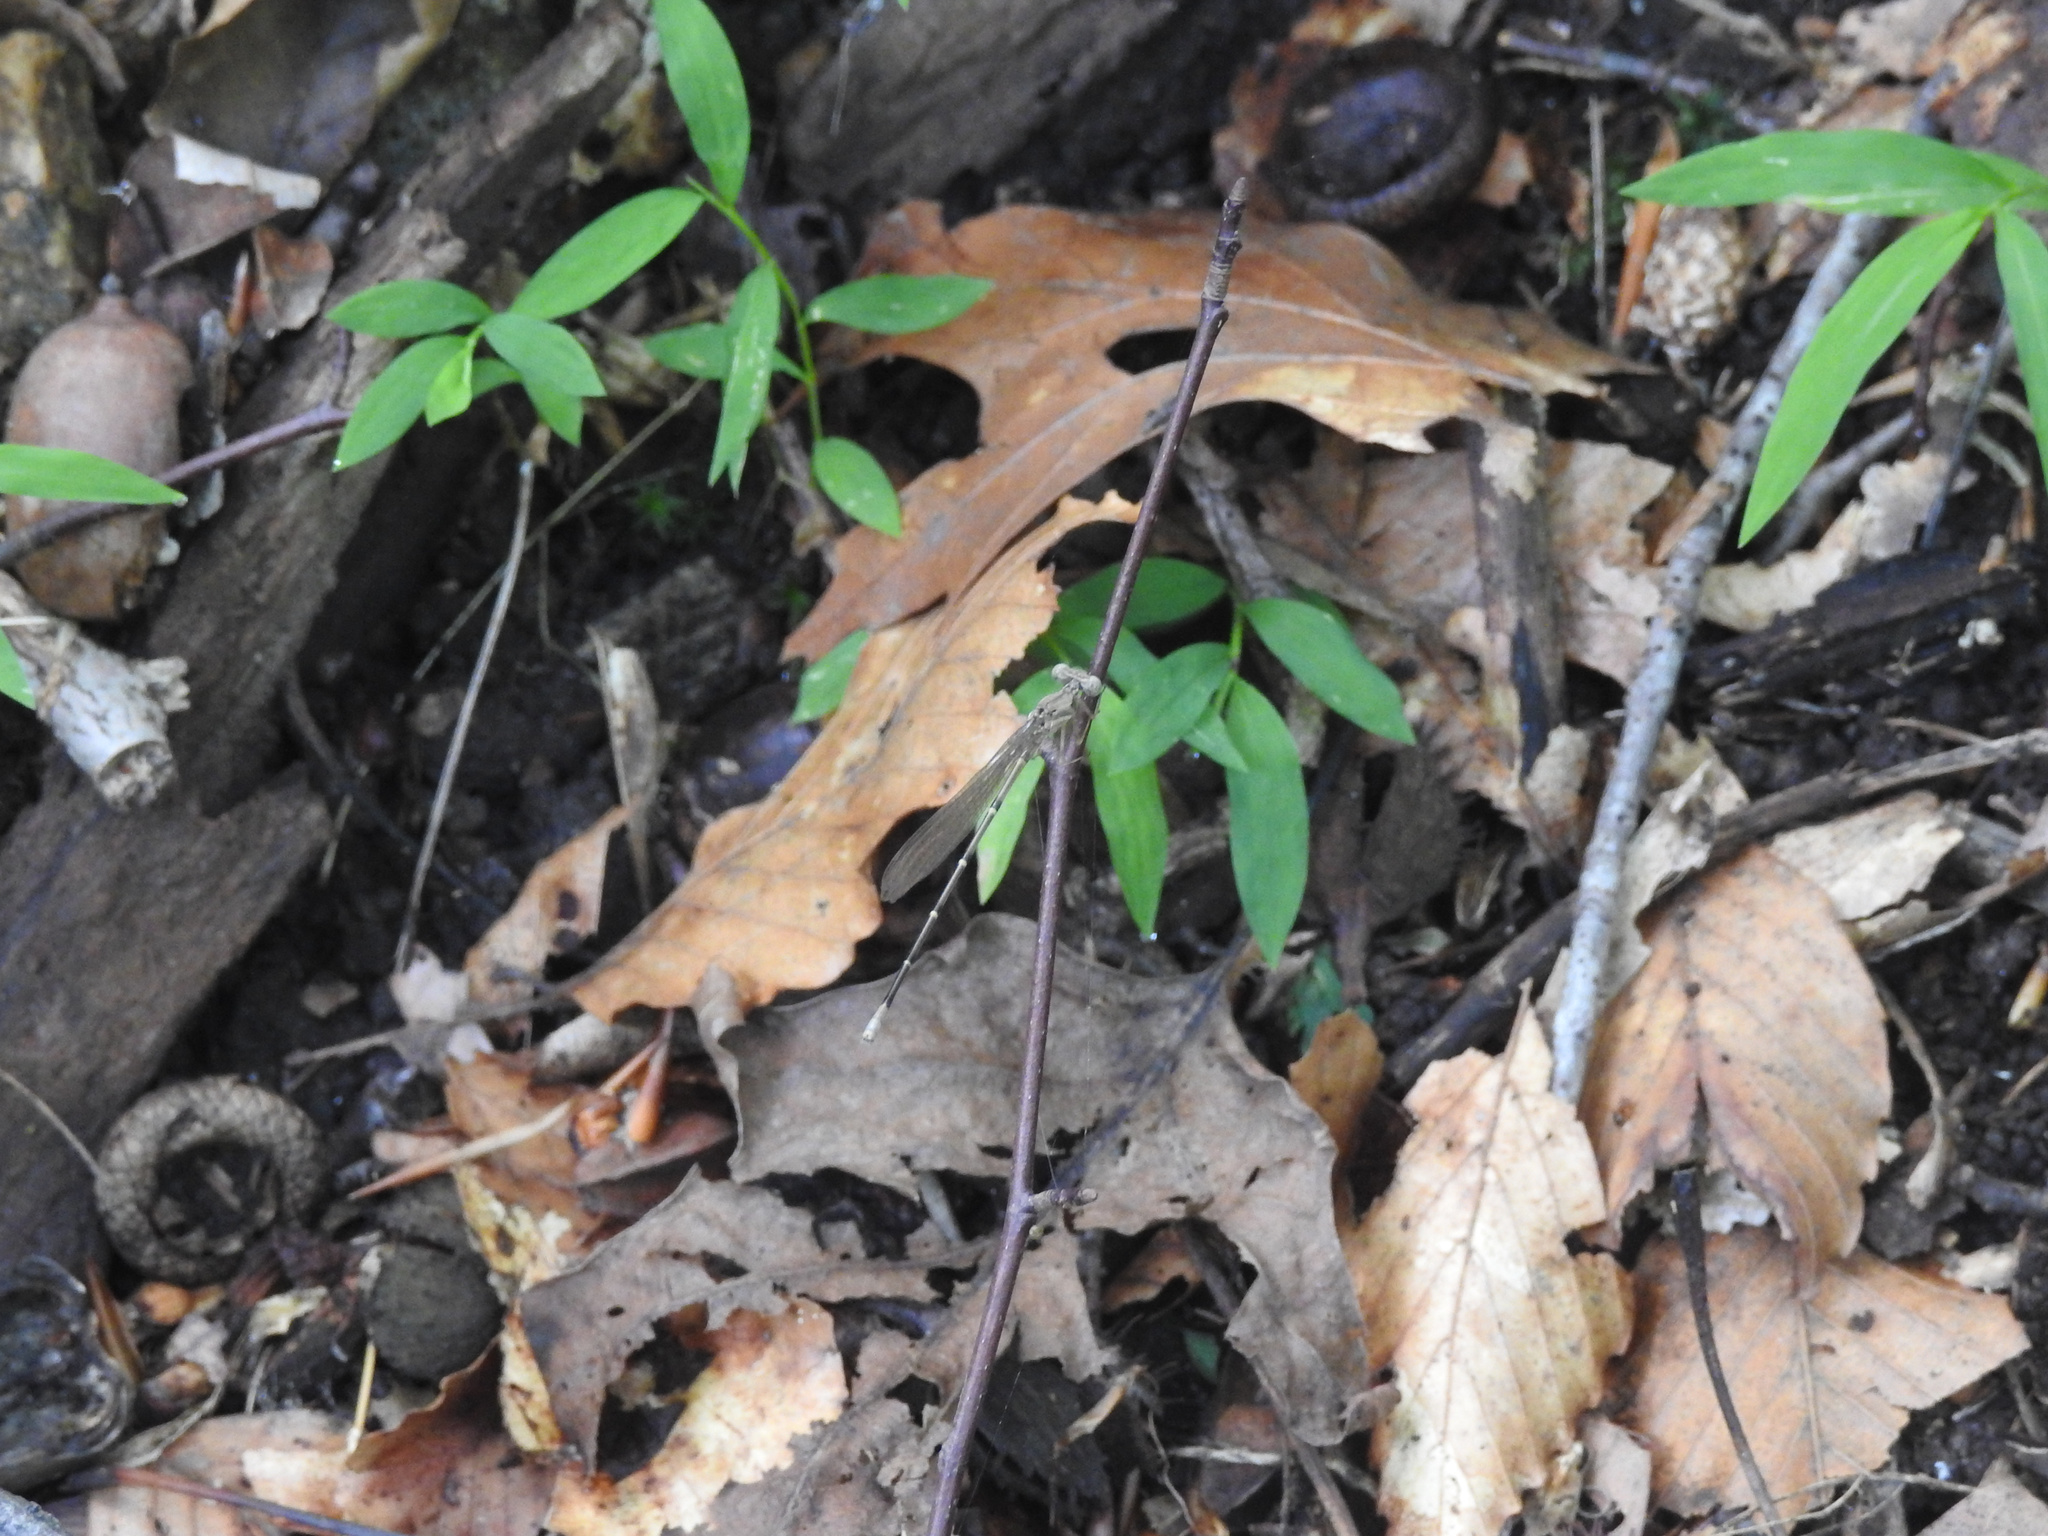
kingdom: Plantae
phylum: Tracheophyta
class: Liliopsida
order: Poales
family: Poaceae
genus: Microstegium
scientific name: Microstegium vimineum
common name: Japanese stiltgrass
